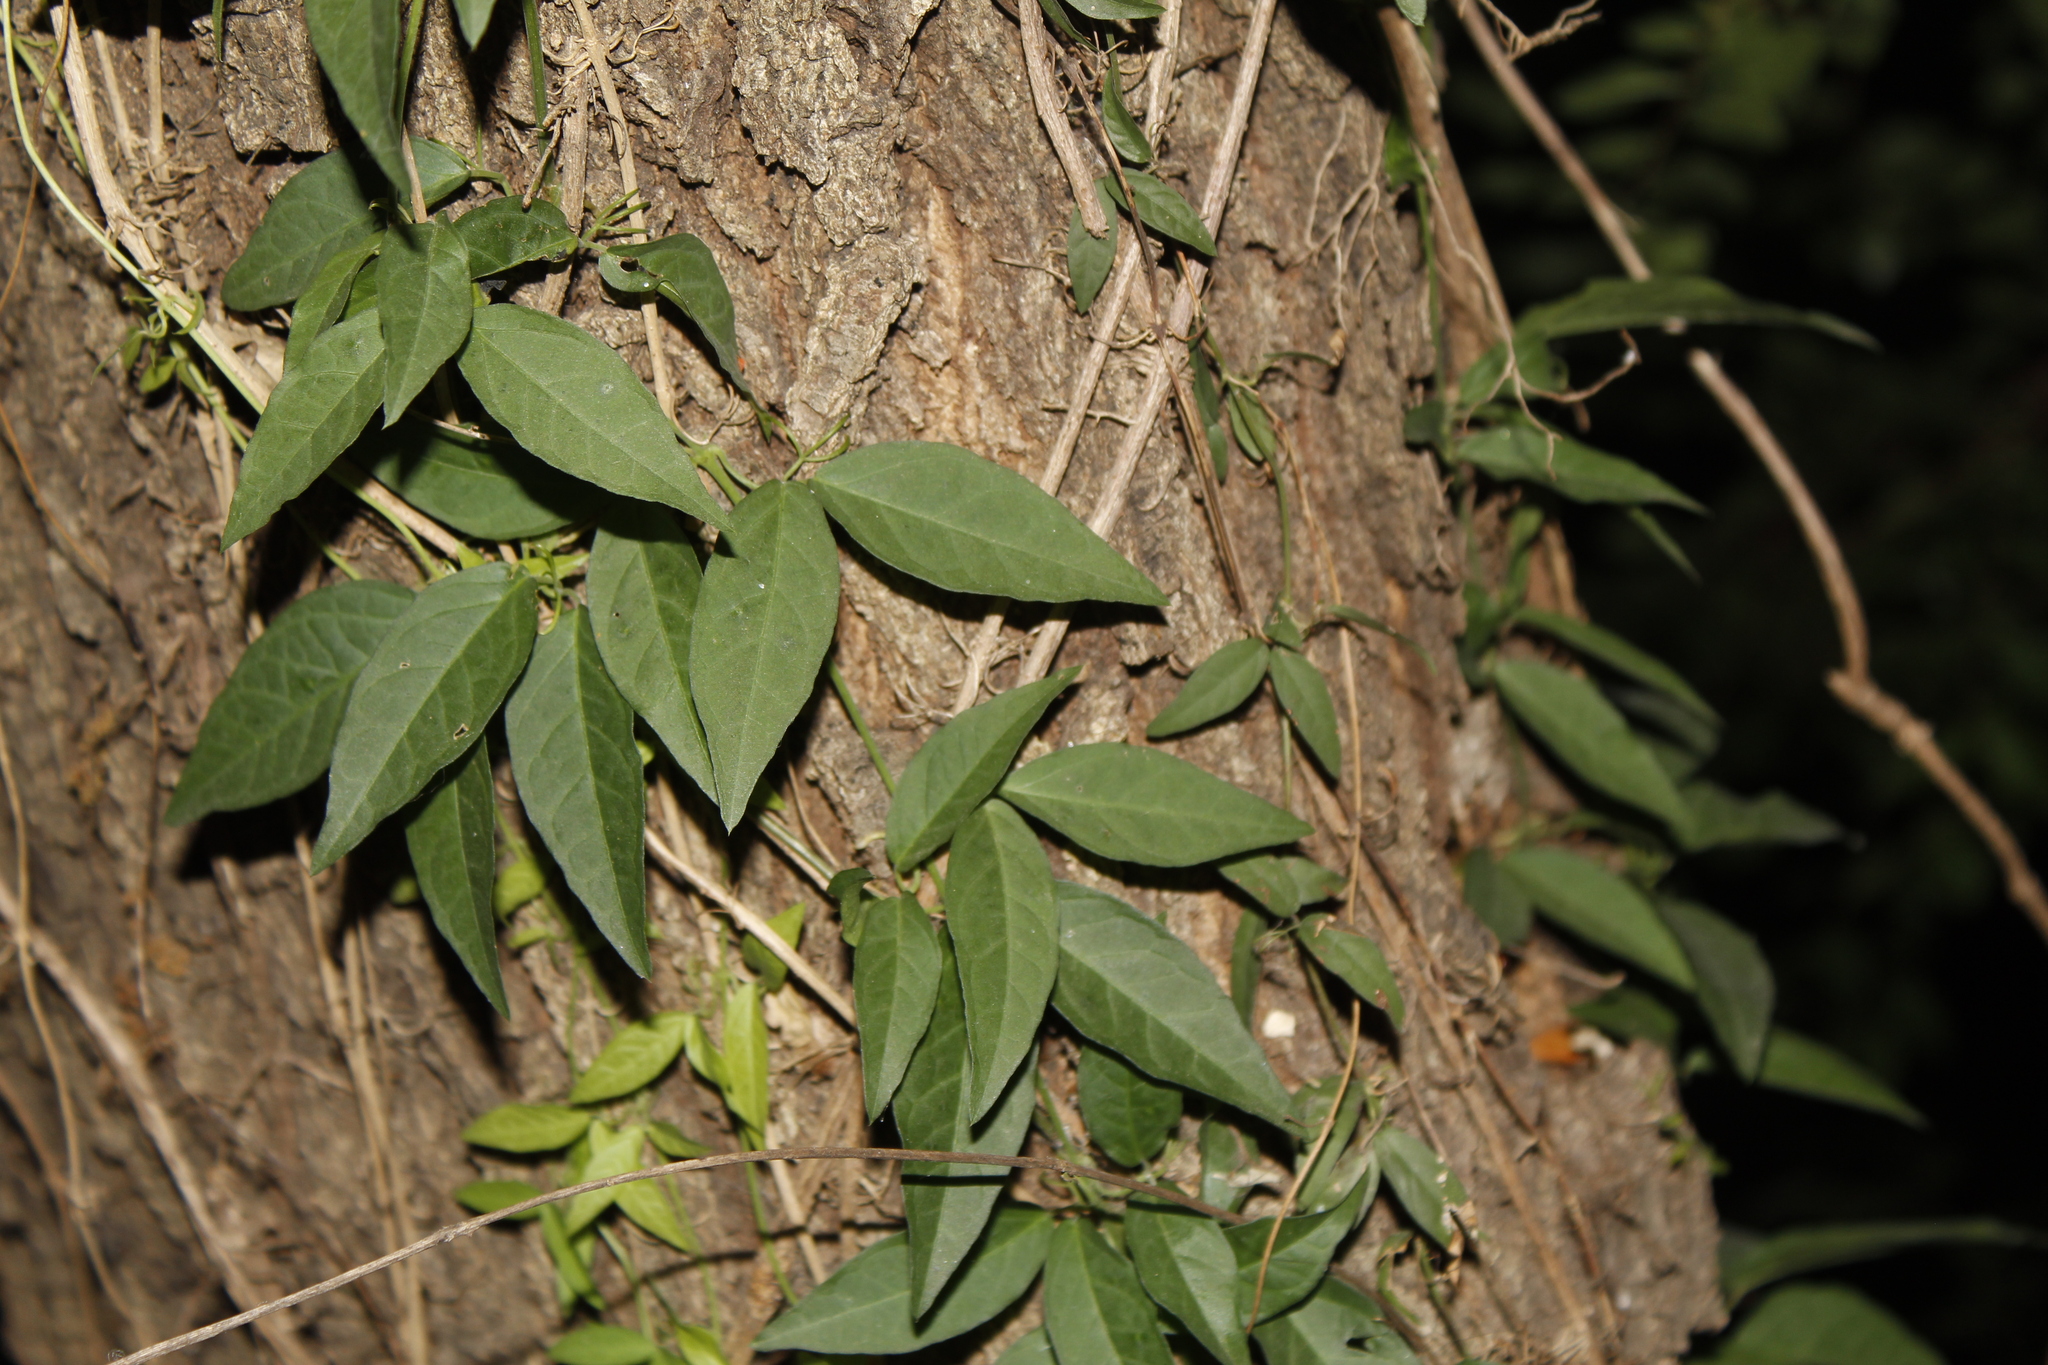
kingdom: Plantae
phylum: Tracheophyta
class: Magnoliopsida
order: Lamiales
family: Bignoniaceae
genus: Dolichandra
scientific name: Dolichandra unguis-cati
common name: Catclaw vine
